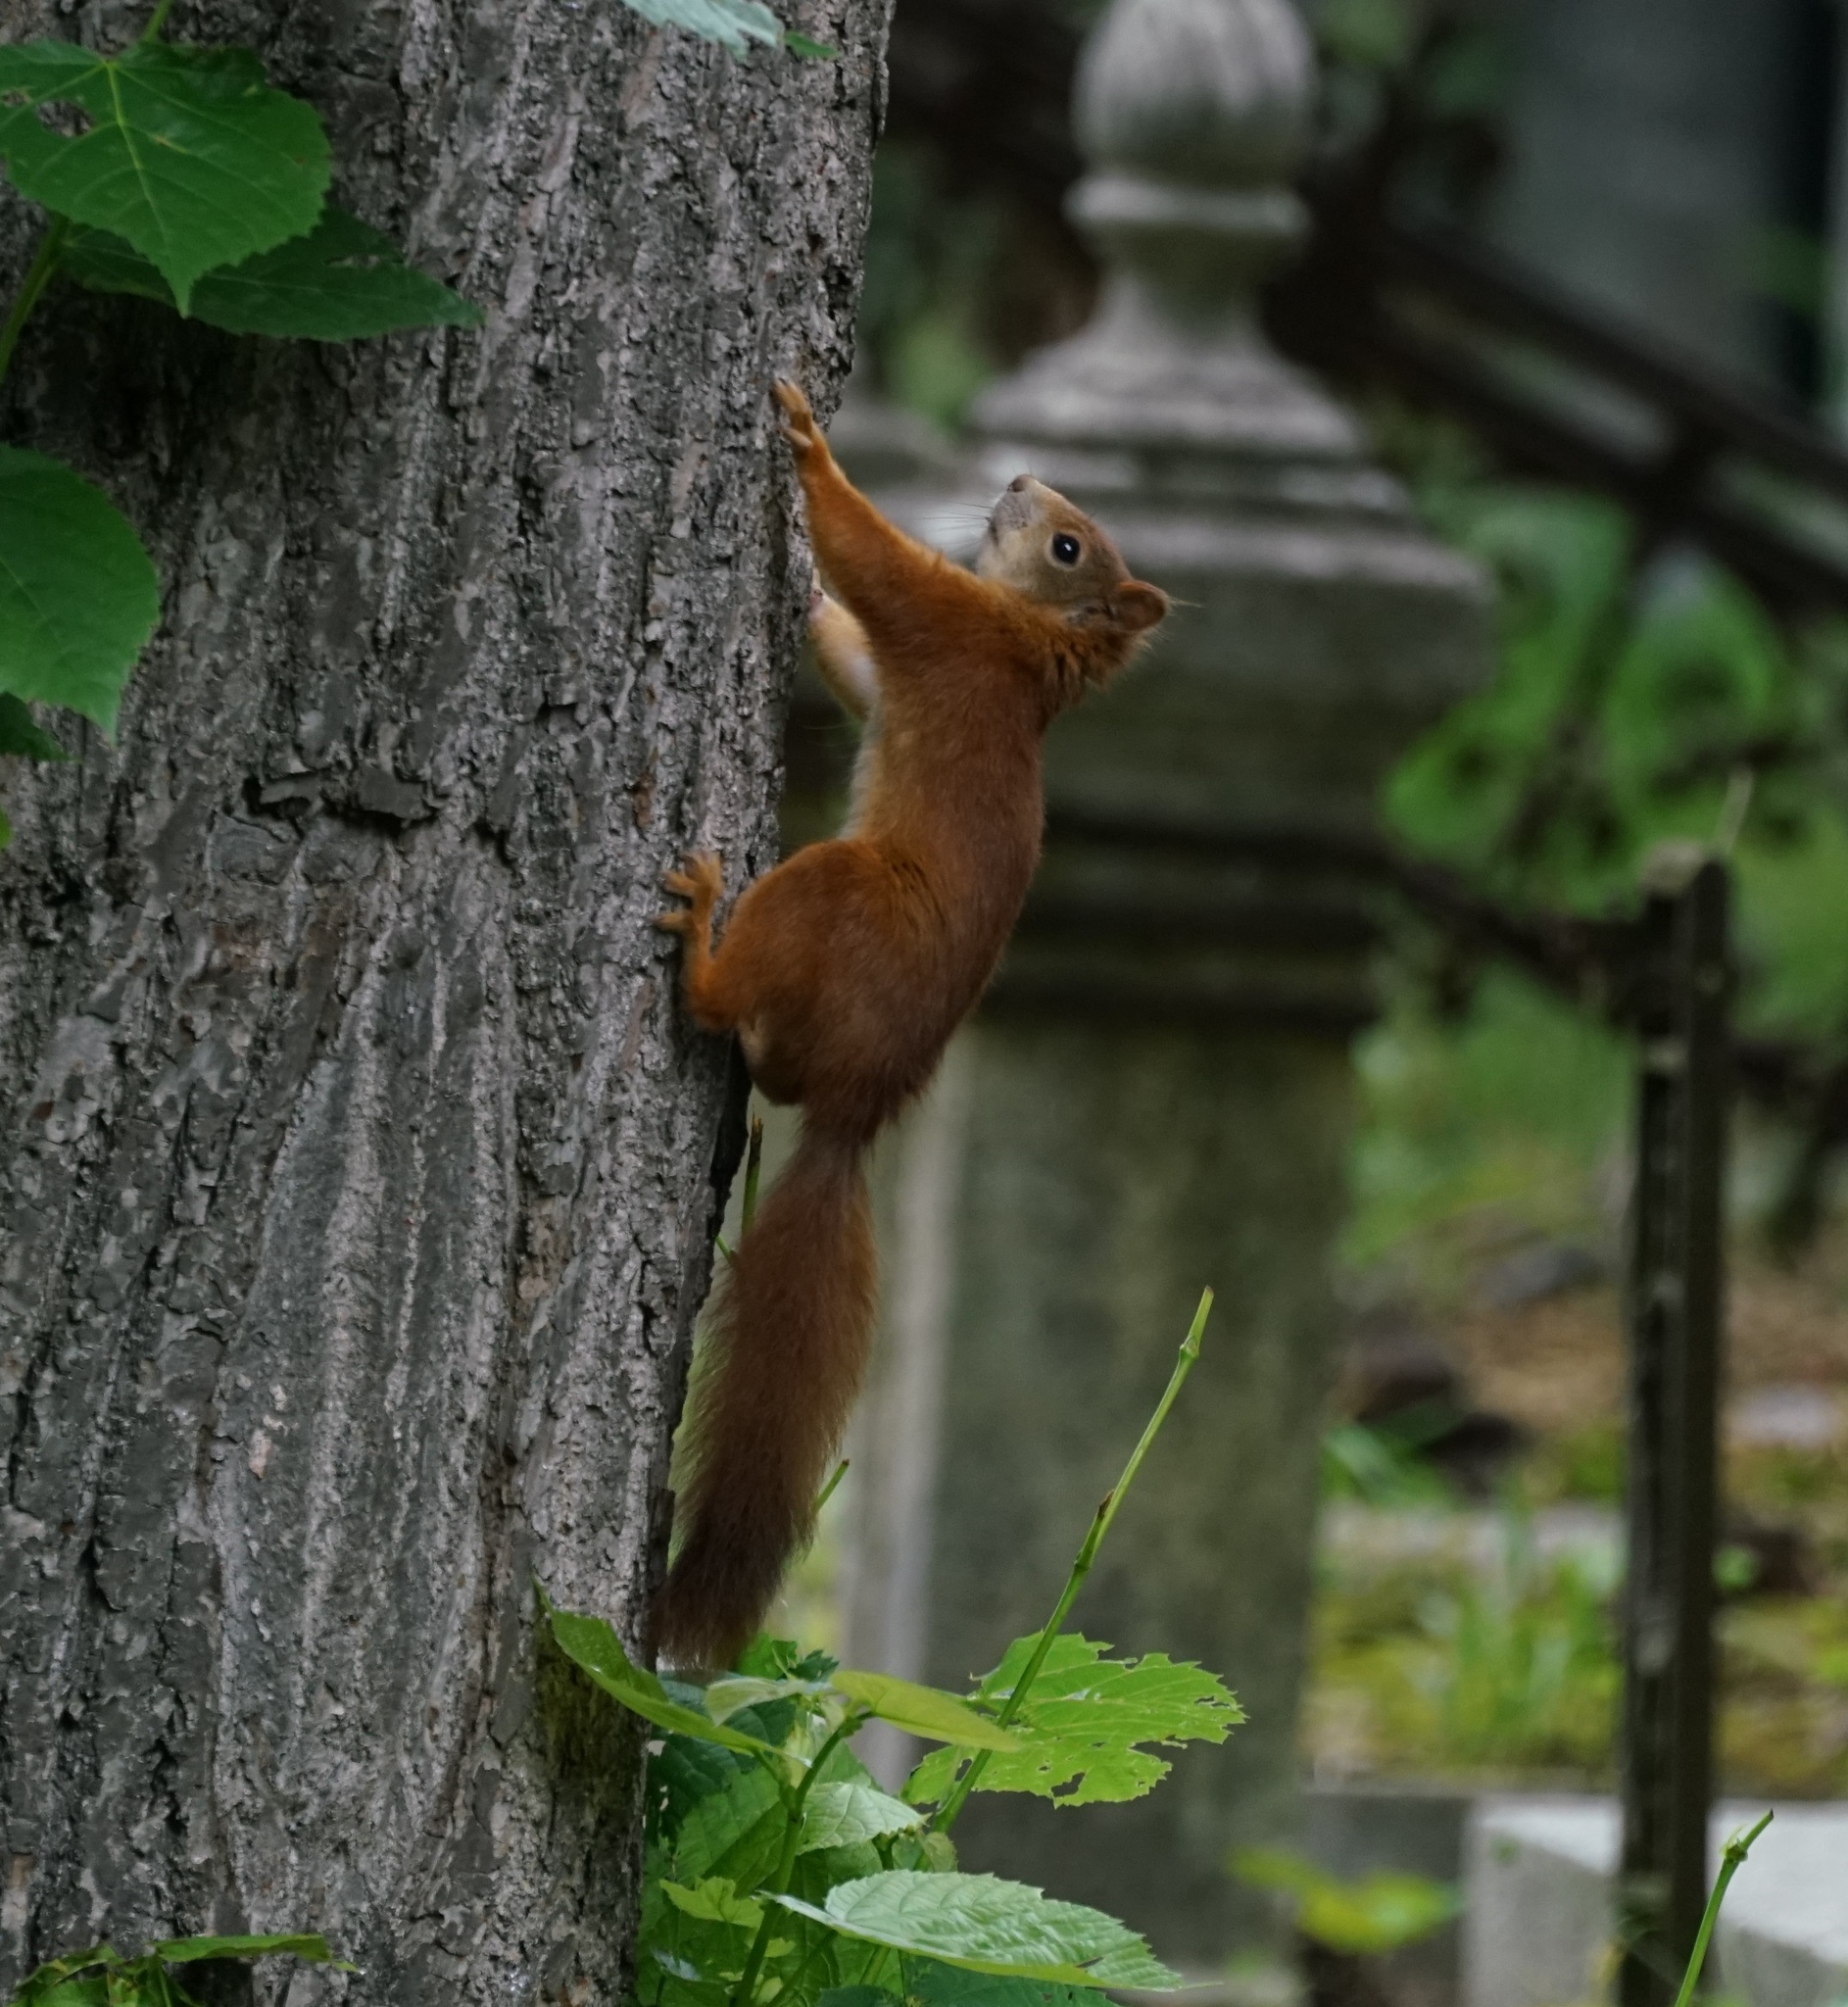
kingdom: Animalia
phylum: Chordata
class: Mammalia
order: Rodentia
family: Sciuridae
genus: Sciurus
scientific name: Sciurus vulgaris
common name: Eurasian red squirrel
